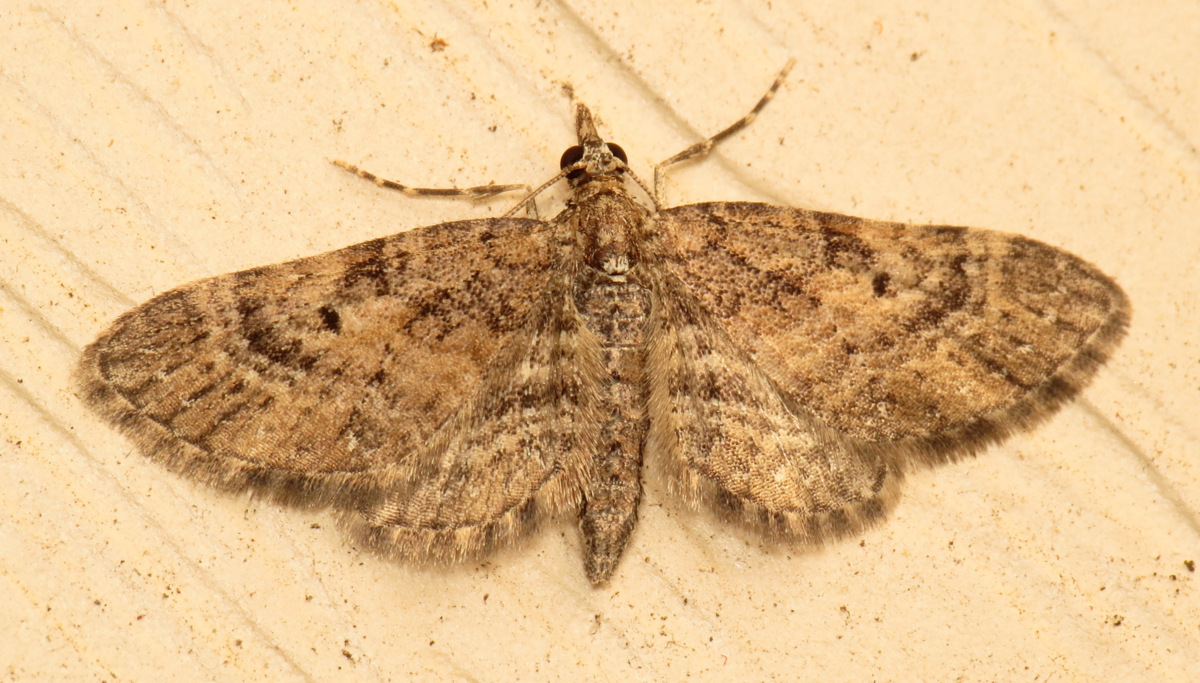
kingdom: Animalia
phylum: Arthropoda
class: Insecta
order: Lepidoptera
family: Geometridae
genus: Eupithecia
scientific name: Eupithecia palpata
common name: Small pine looper
